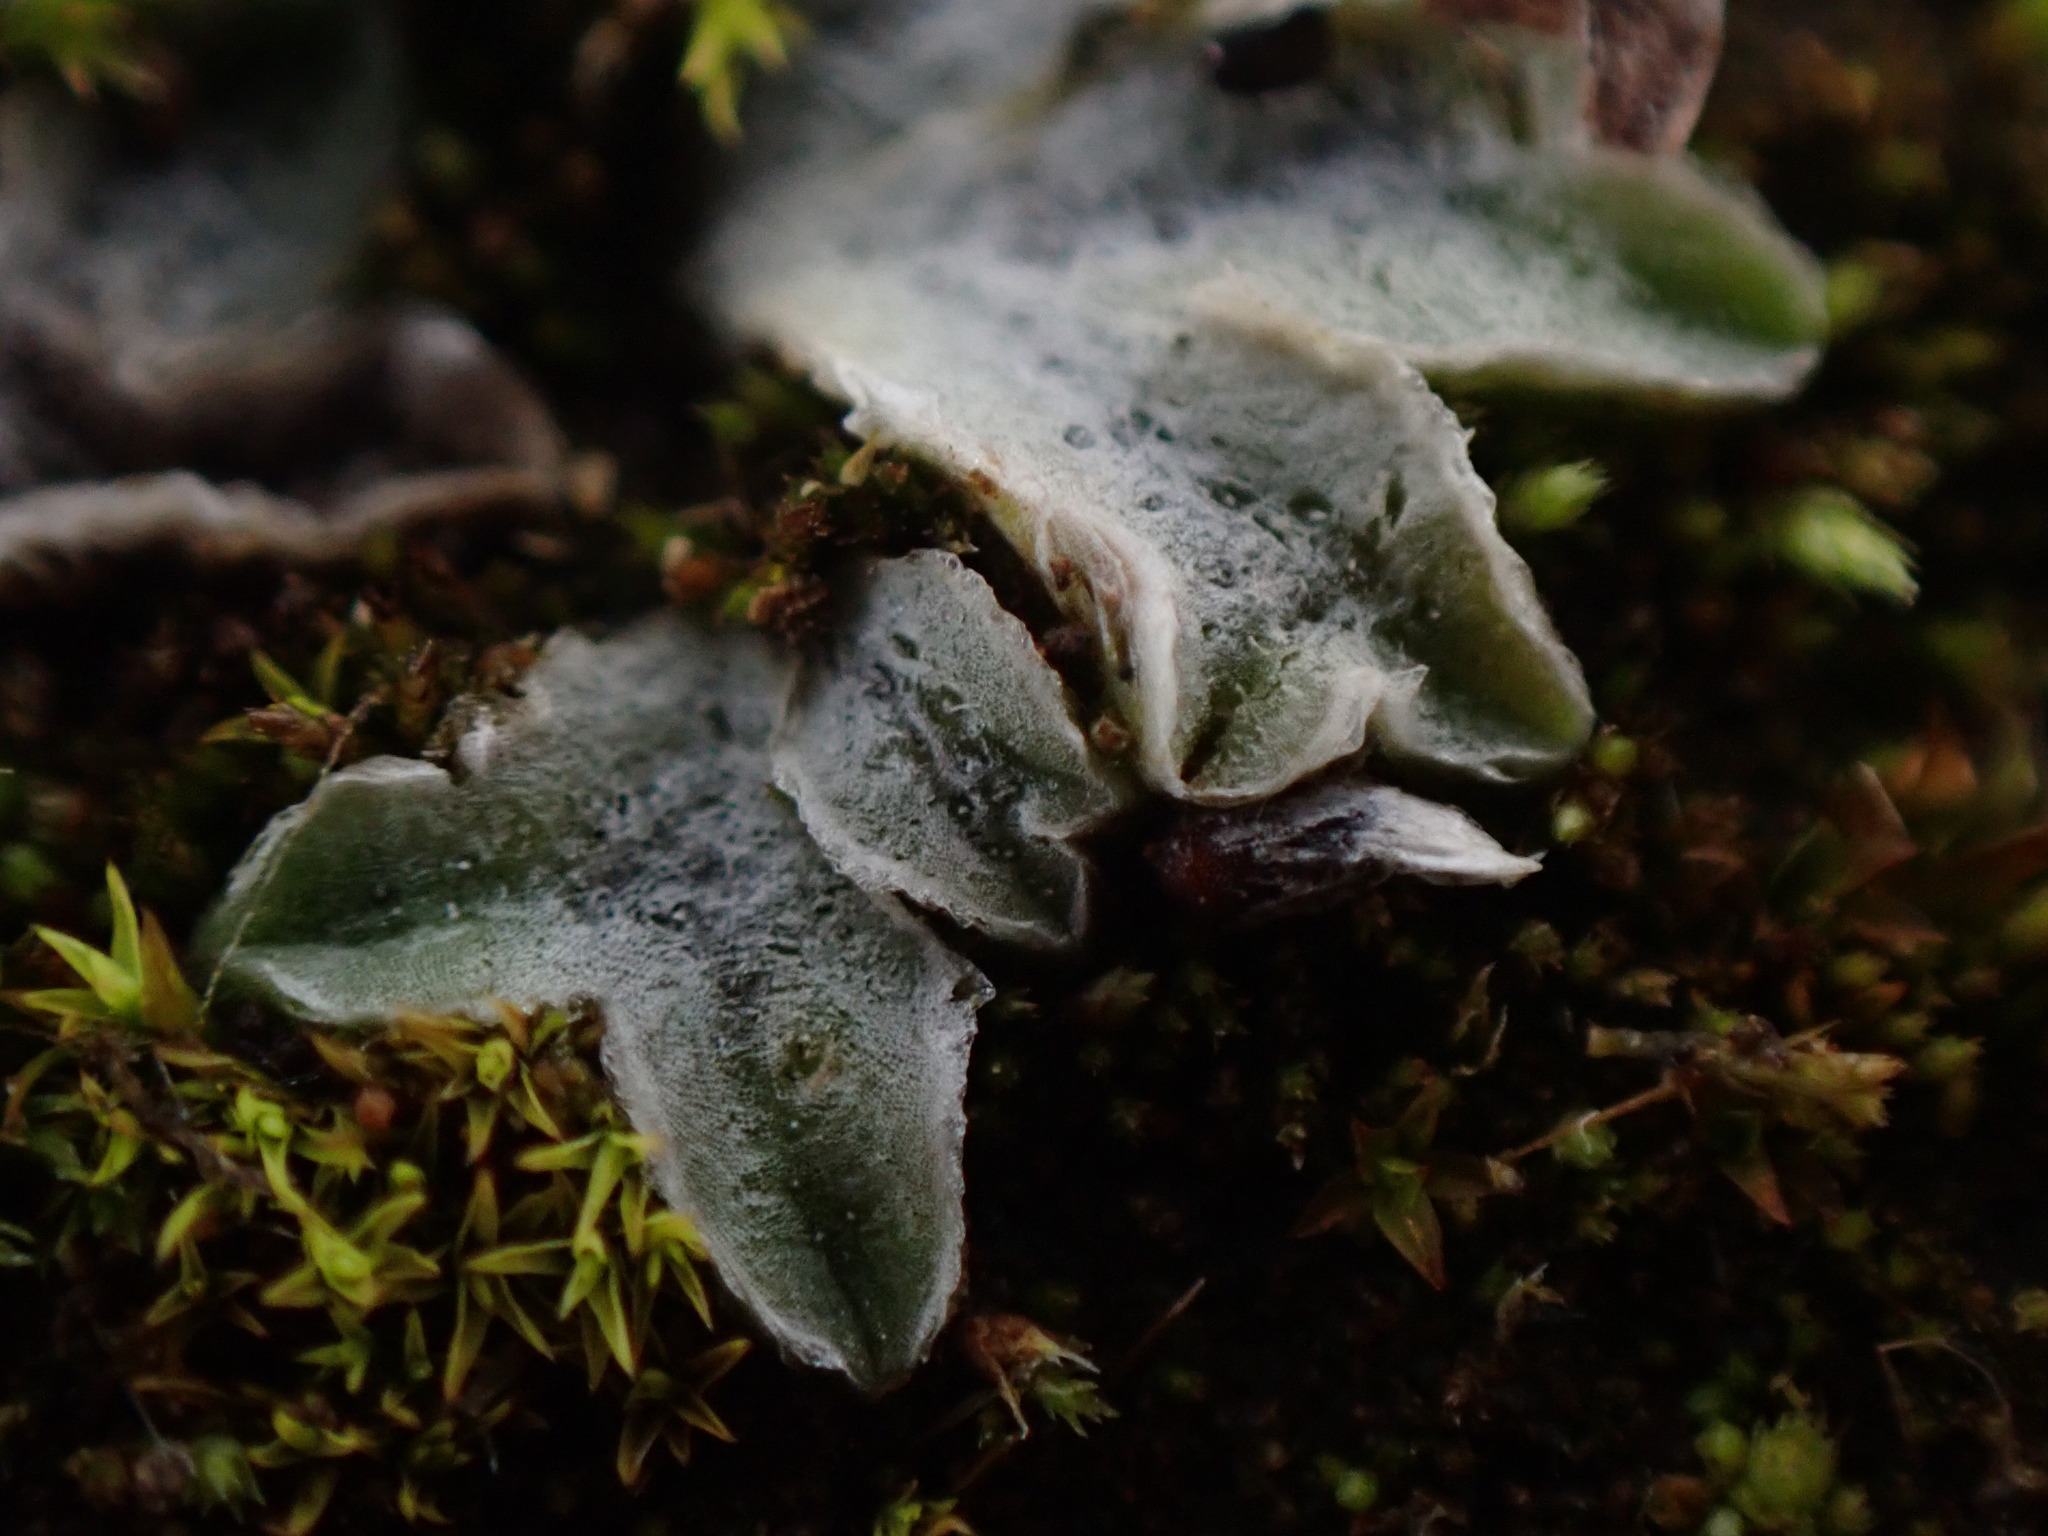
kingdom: Plantae
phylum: Marchantiophyta
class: Marchantiopsida
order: Marchantiales
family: Ricciaceae
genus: Riccia
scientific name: Riccia lamellosa
